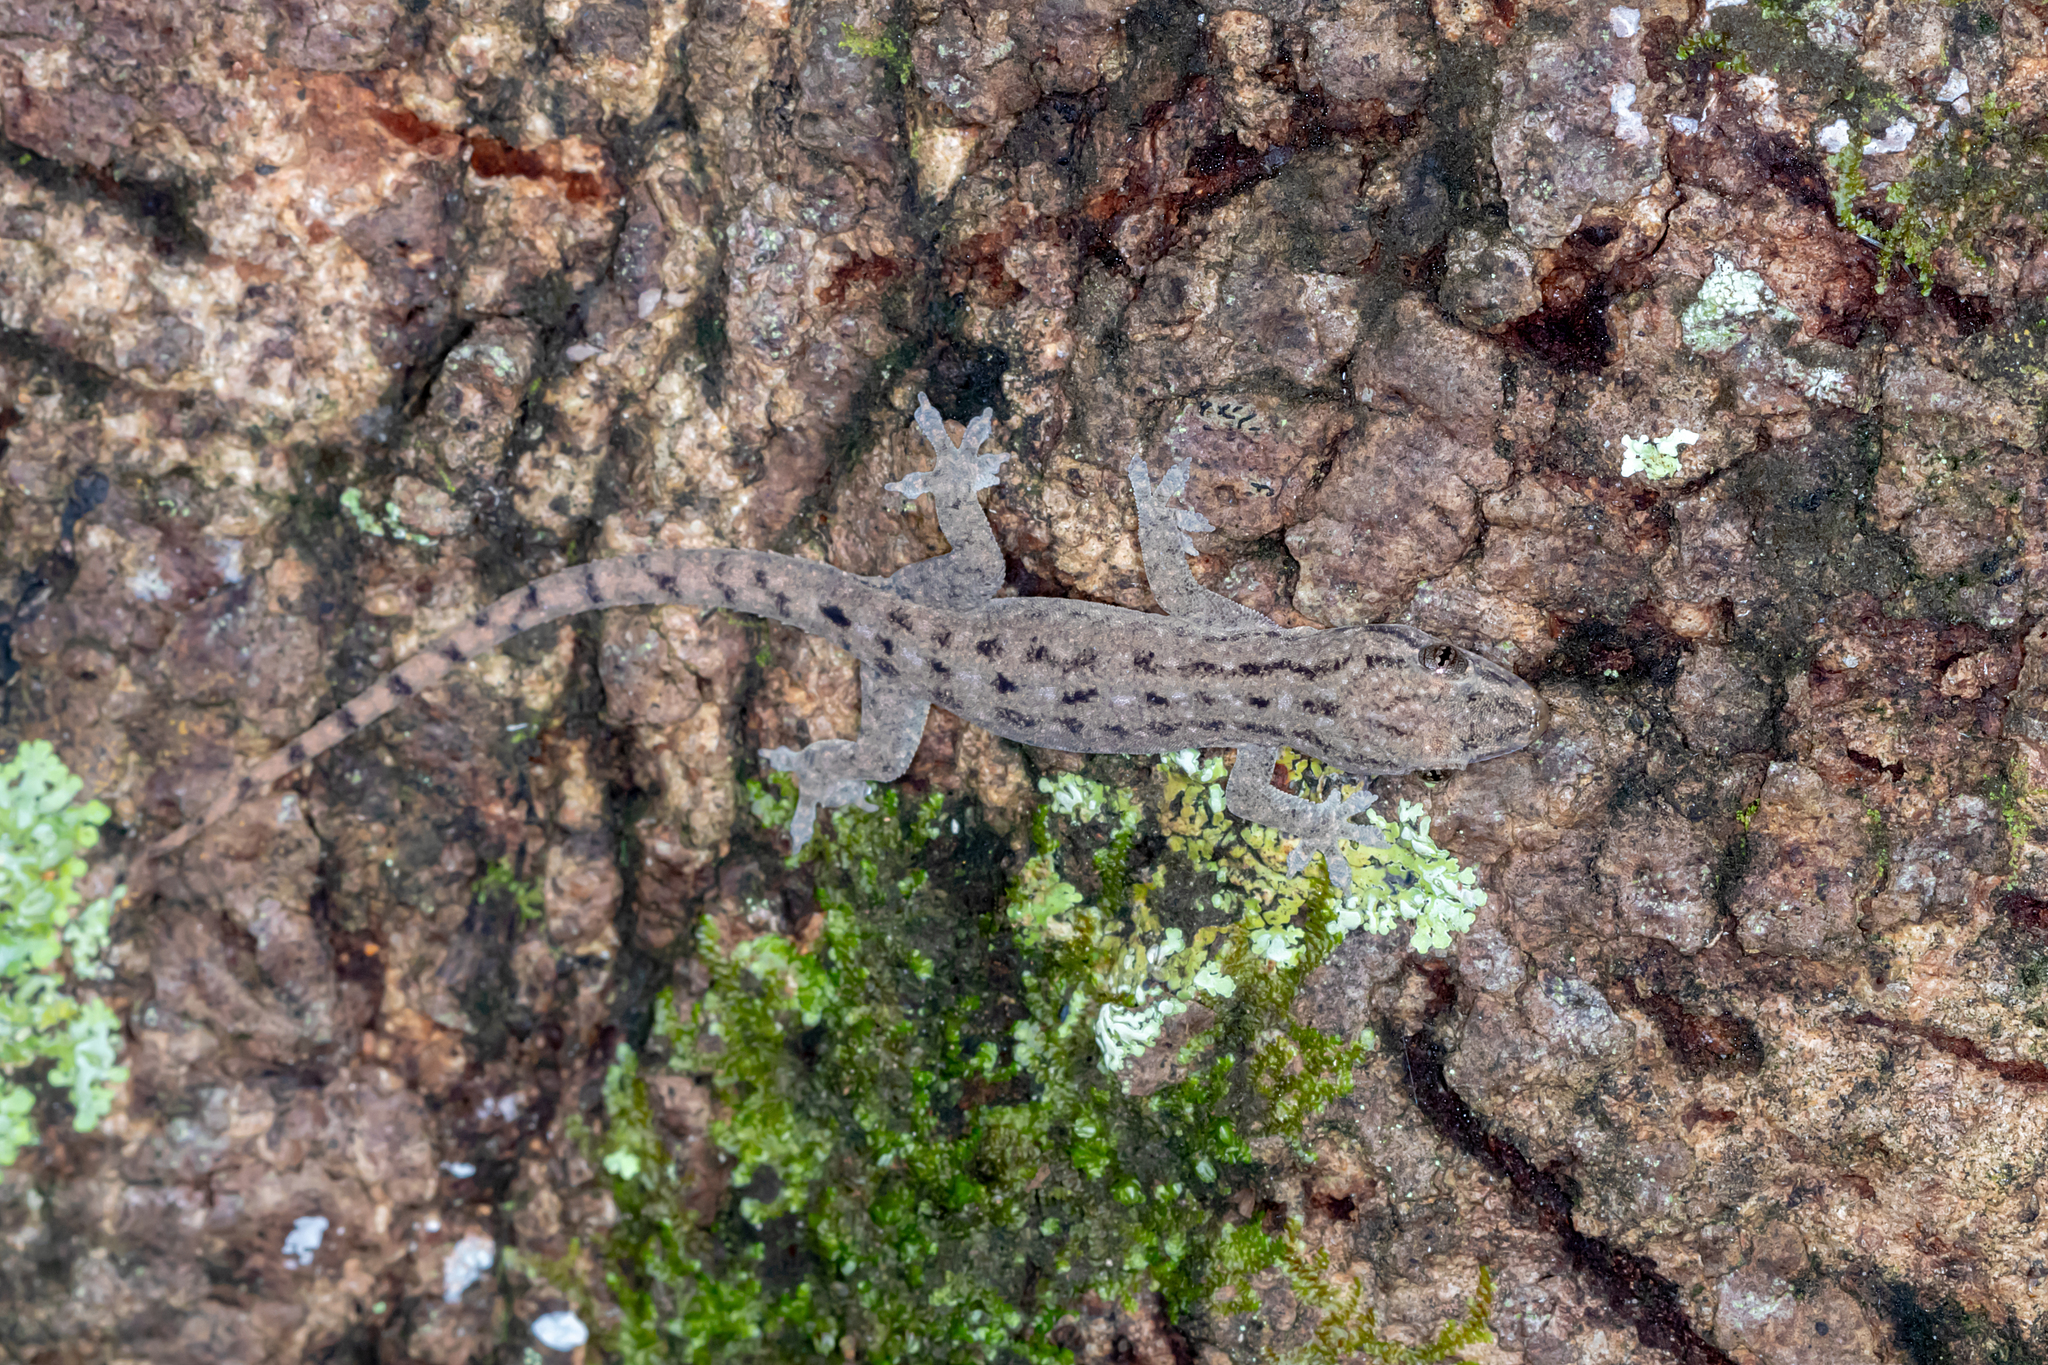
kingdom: Animalia
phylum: Chordata
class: Squamata
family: Gekkonidae
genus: Hemidactylus
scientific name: Hemidactylus frenatus
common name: Common house gecko
